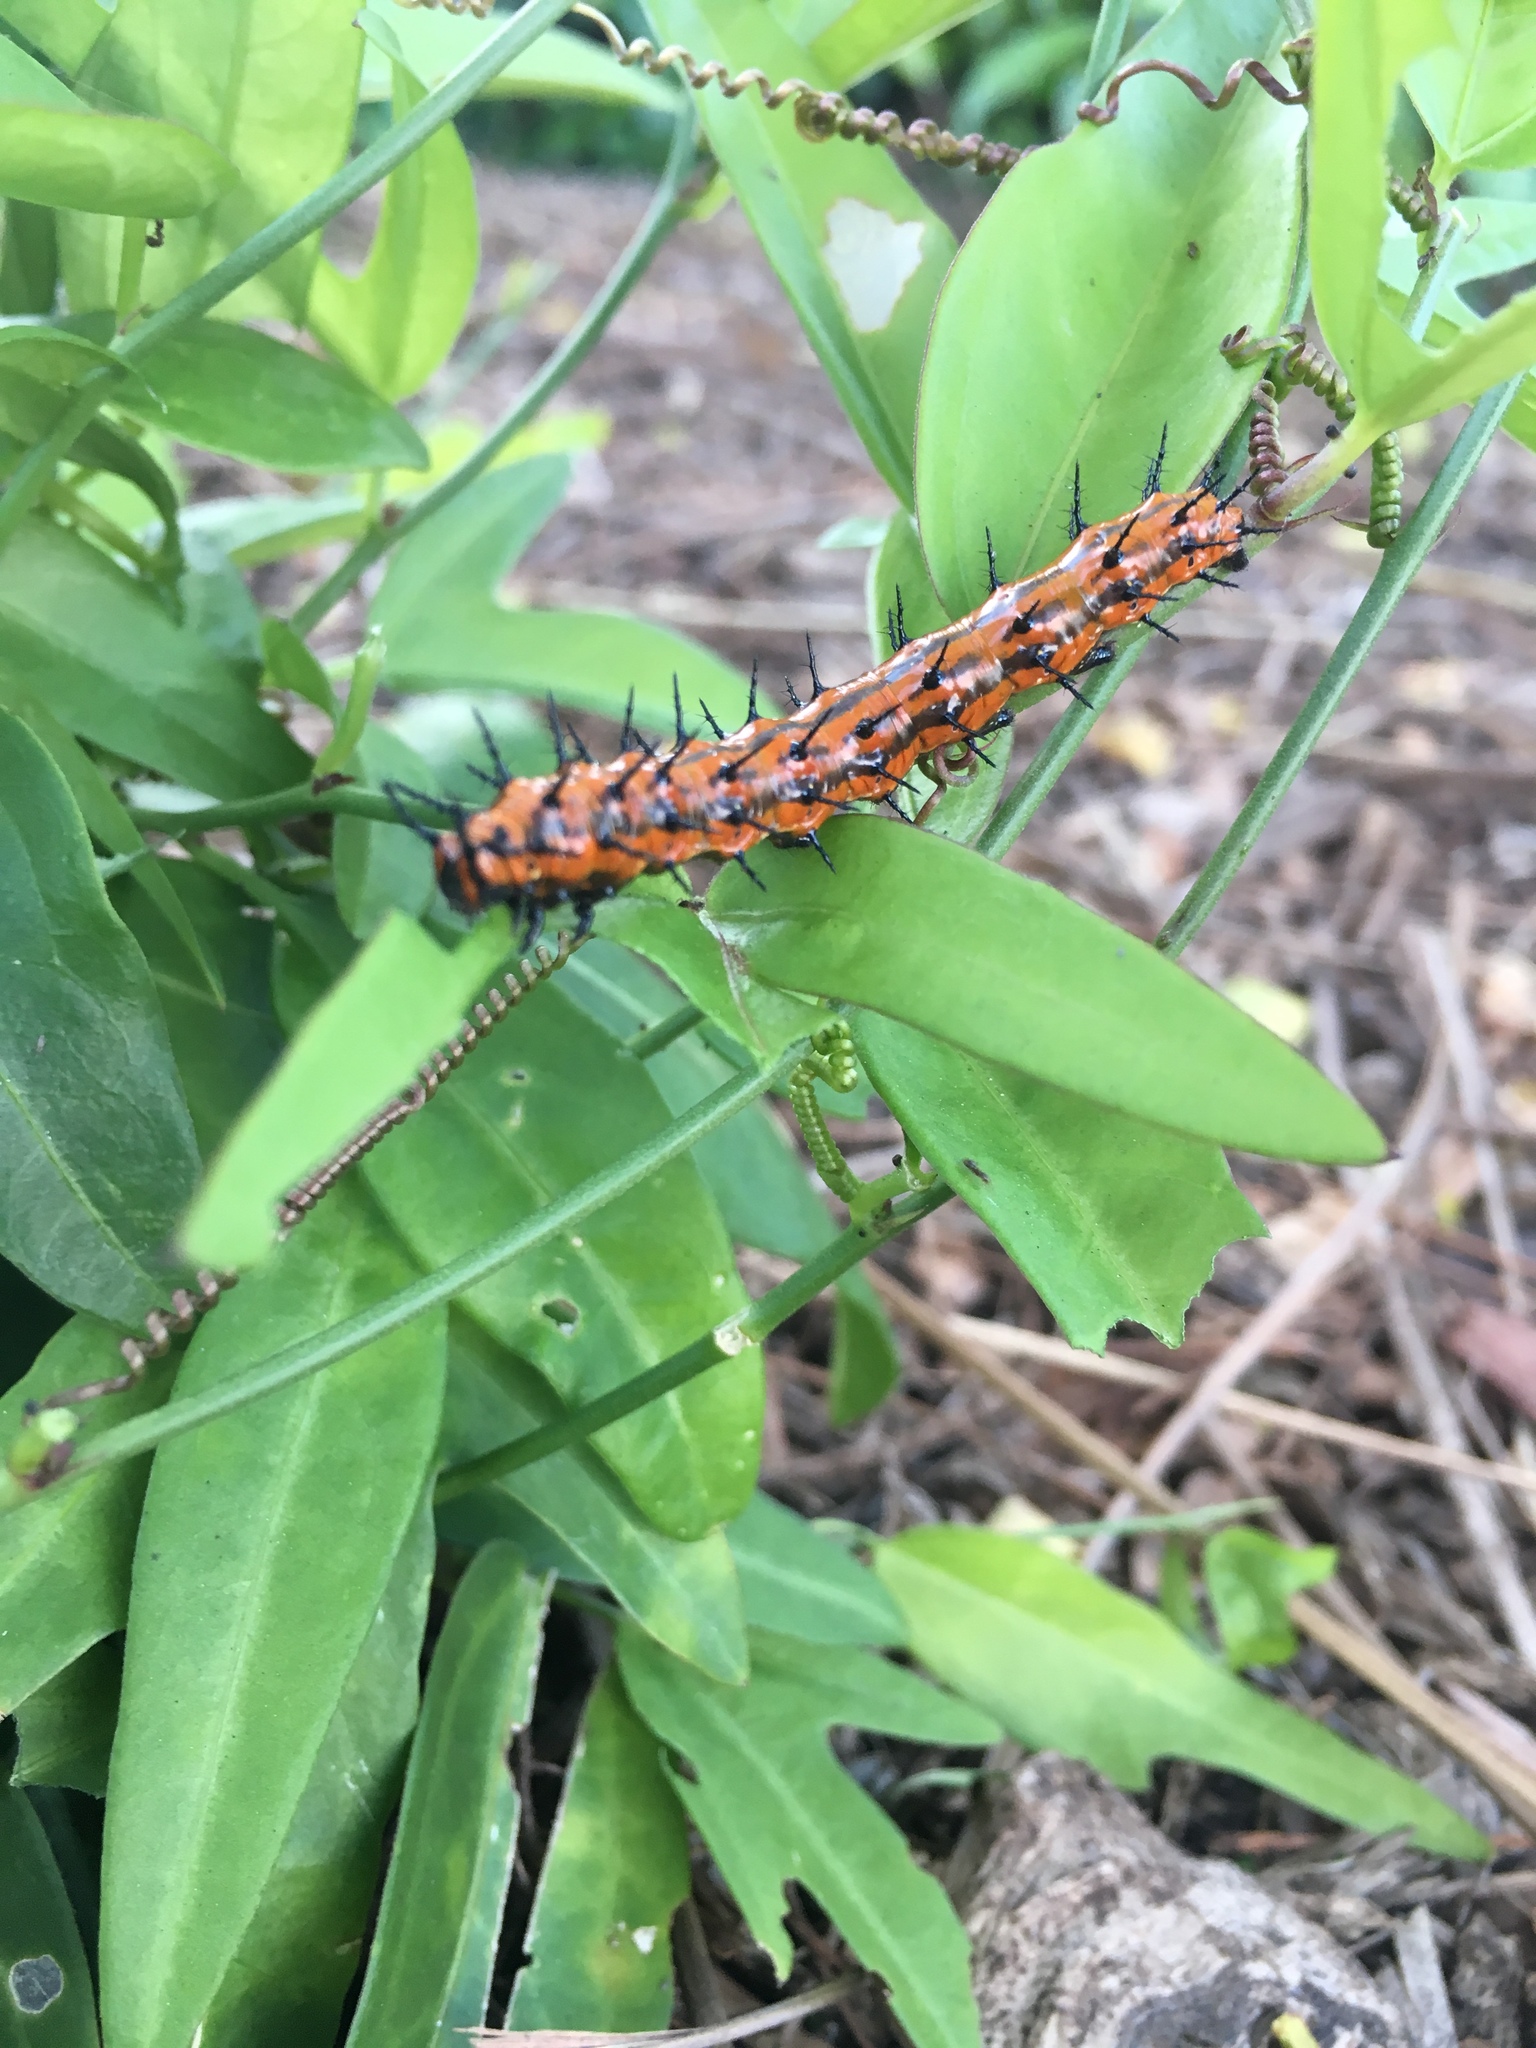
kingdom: Animalia
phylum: Arthropoda
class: Insecta
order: Lepidoptera
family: Nymphalidae
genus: Dione
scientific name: Dione vanillae
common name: Gulf fritillary
